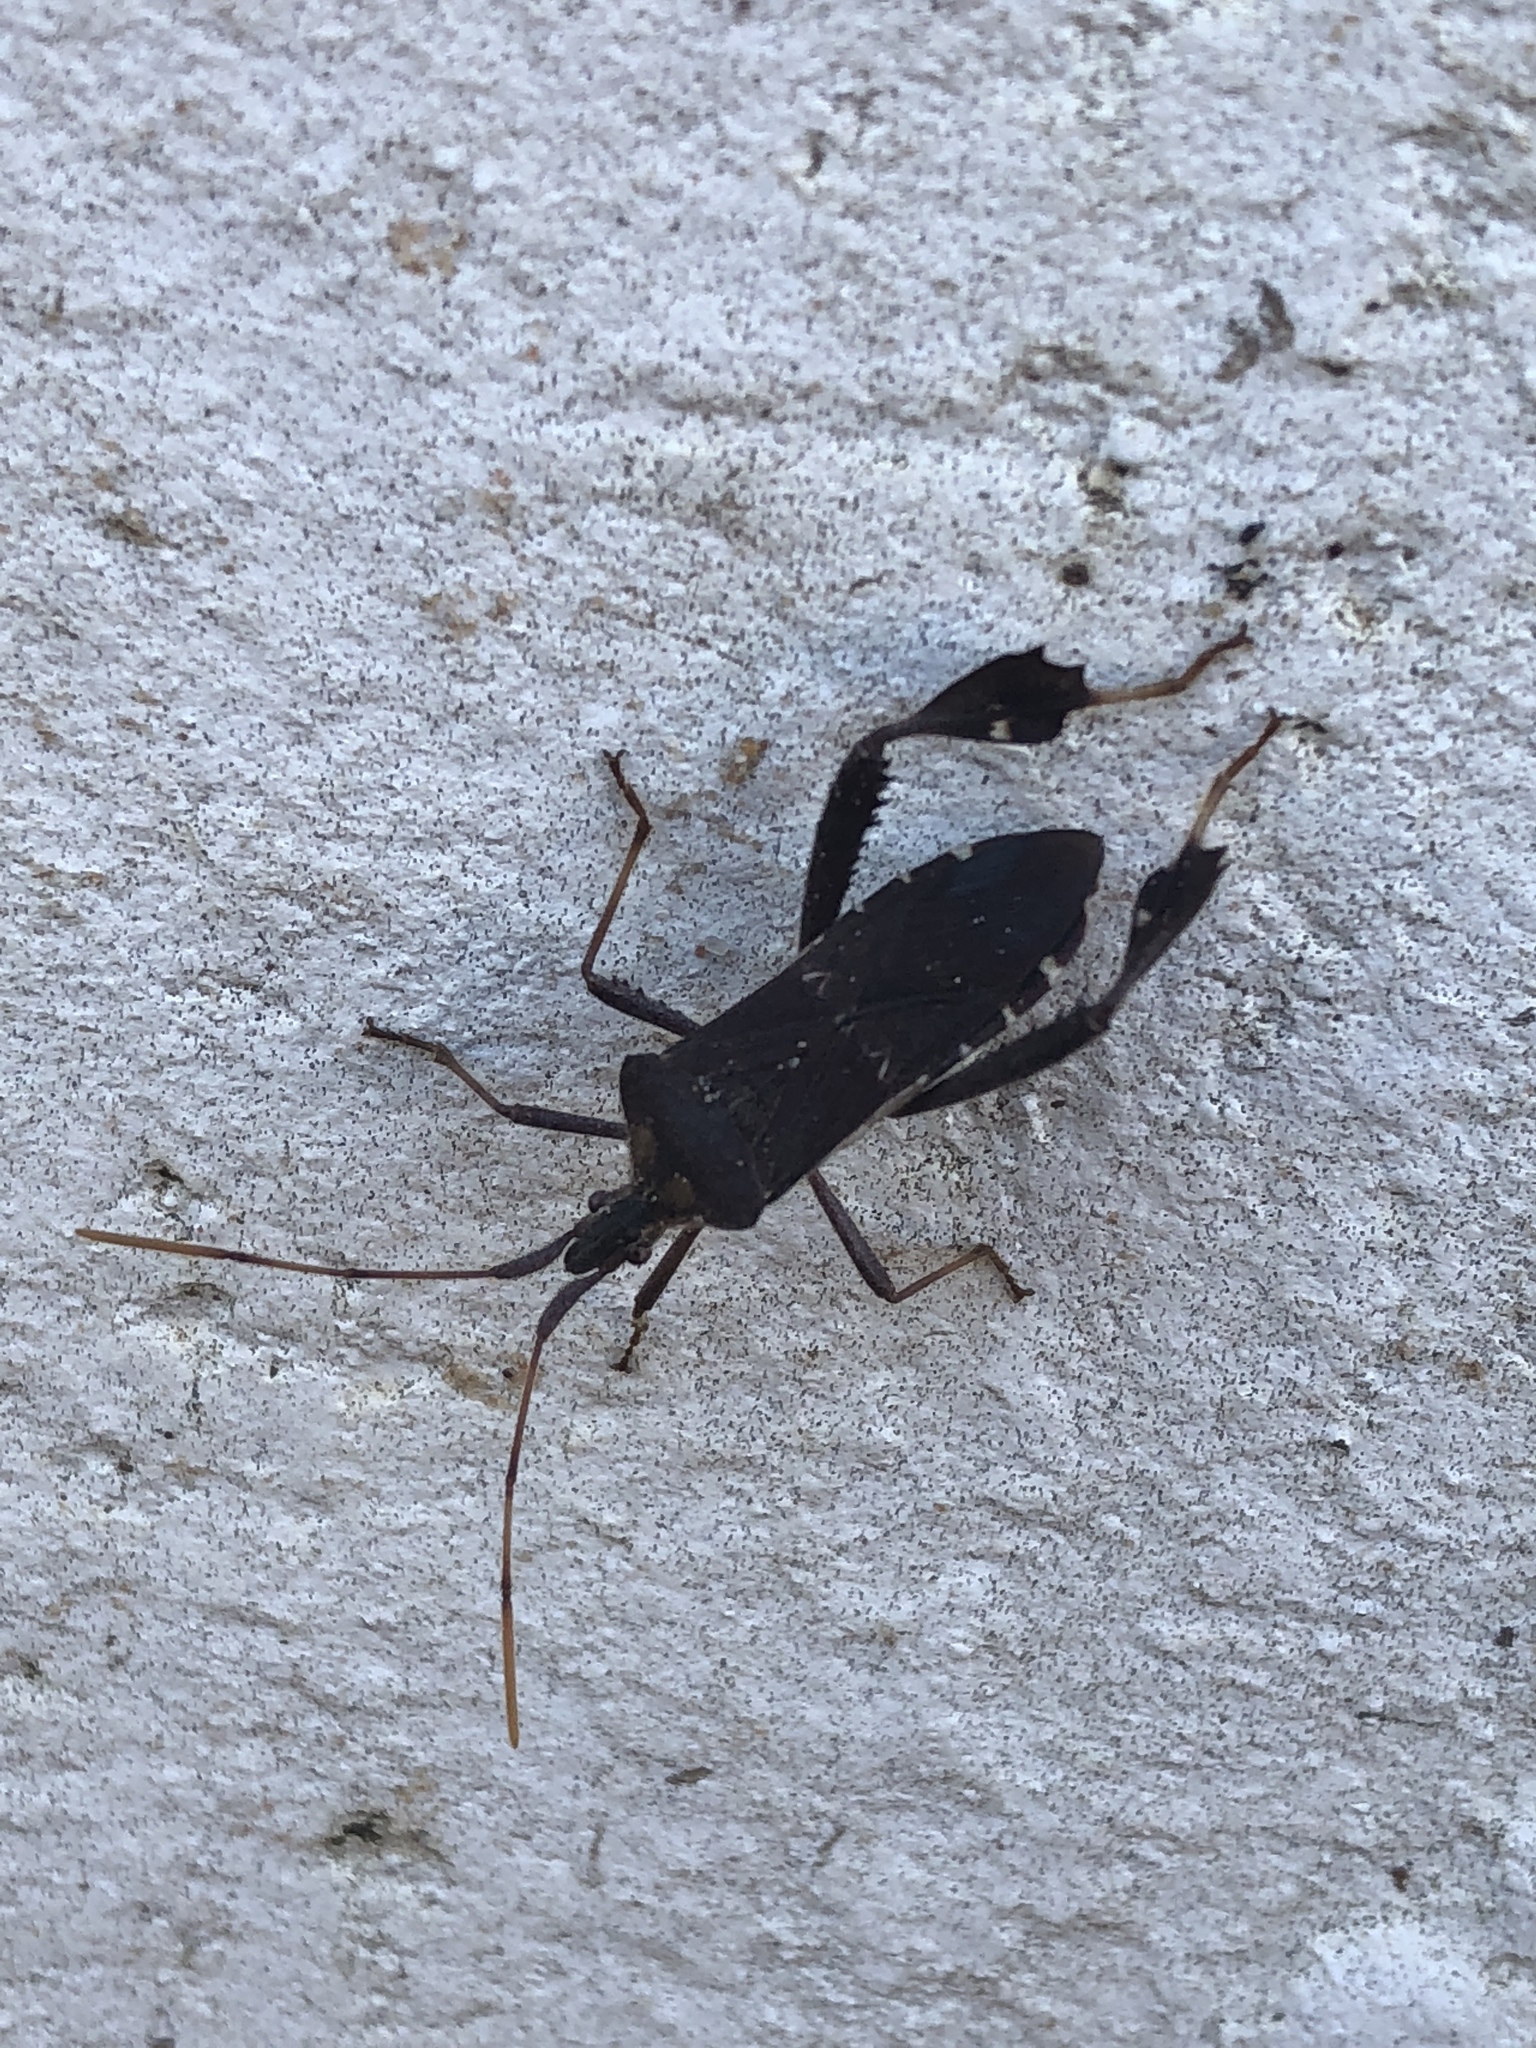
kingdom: Animalia
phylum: Arthropoda
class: Insecta
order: Hemiptera
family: Coreidae
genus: Leptoglossus
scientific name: Leptoglossus oppositus
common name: Northern leaf-footed bug
